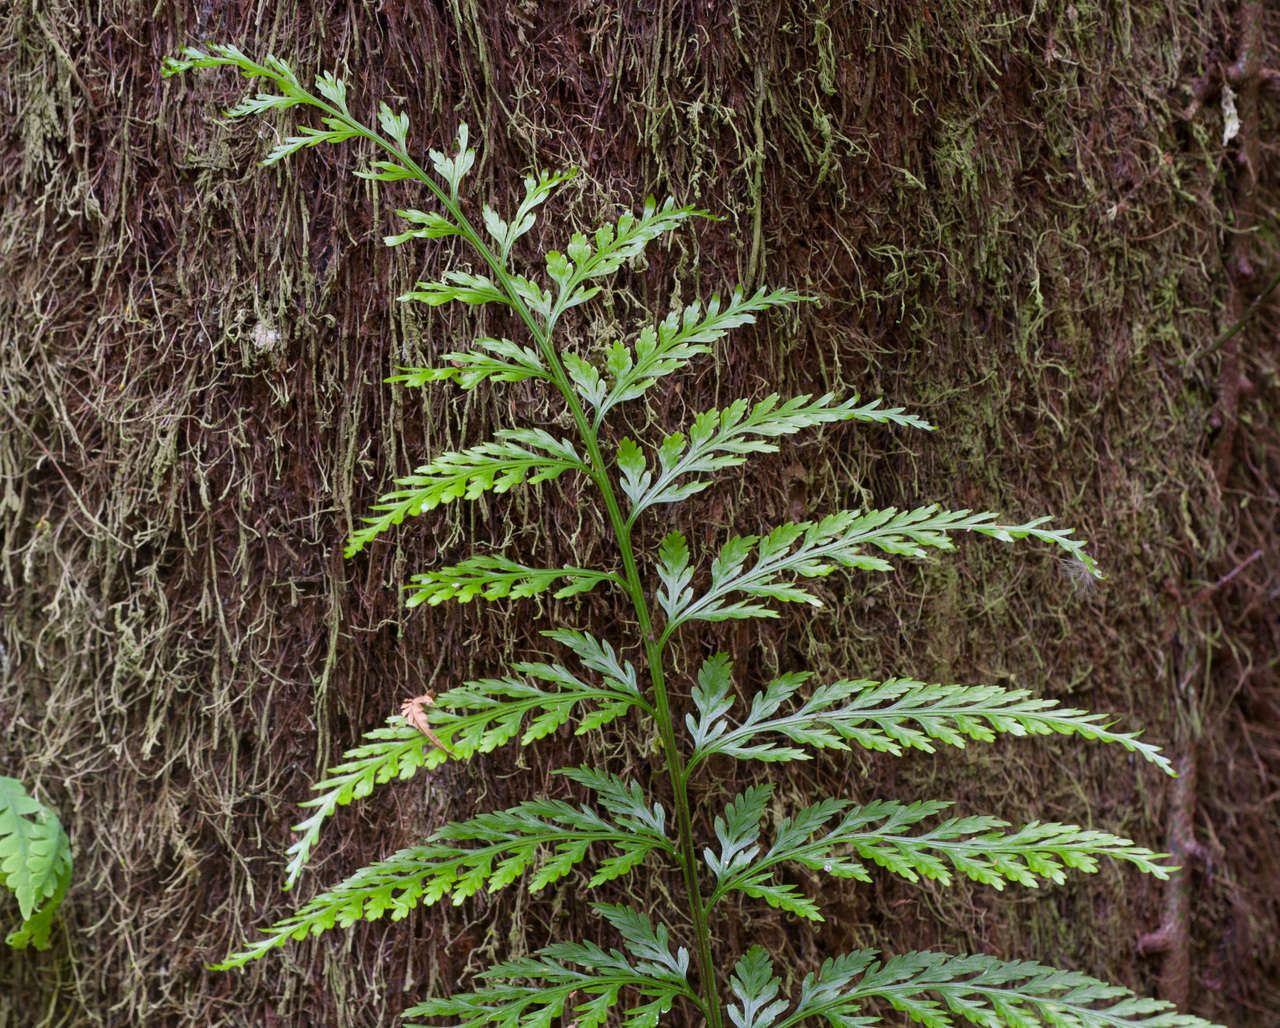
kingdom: Plantae
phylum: Tracheophyta
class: Polypodiopsida
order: Polypodiales
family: Aspleniaceae
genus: Asplenium
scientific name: Asplenium
